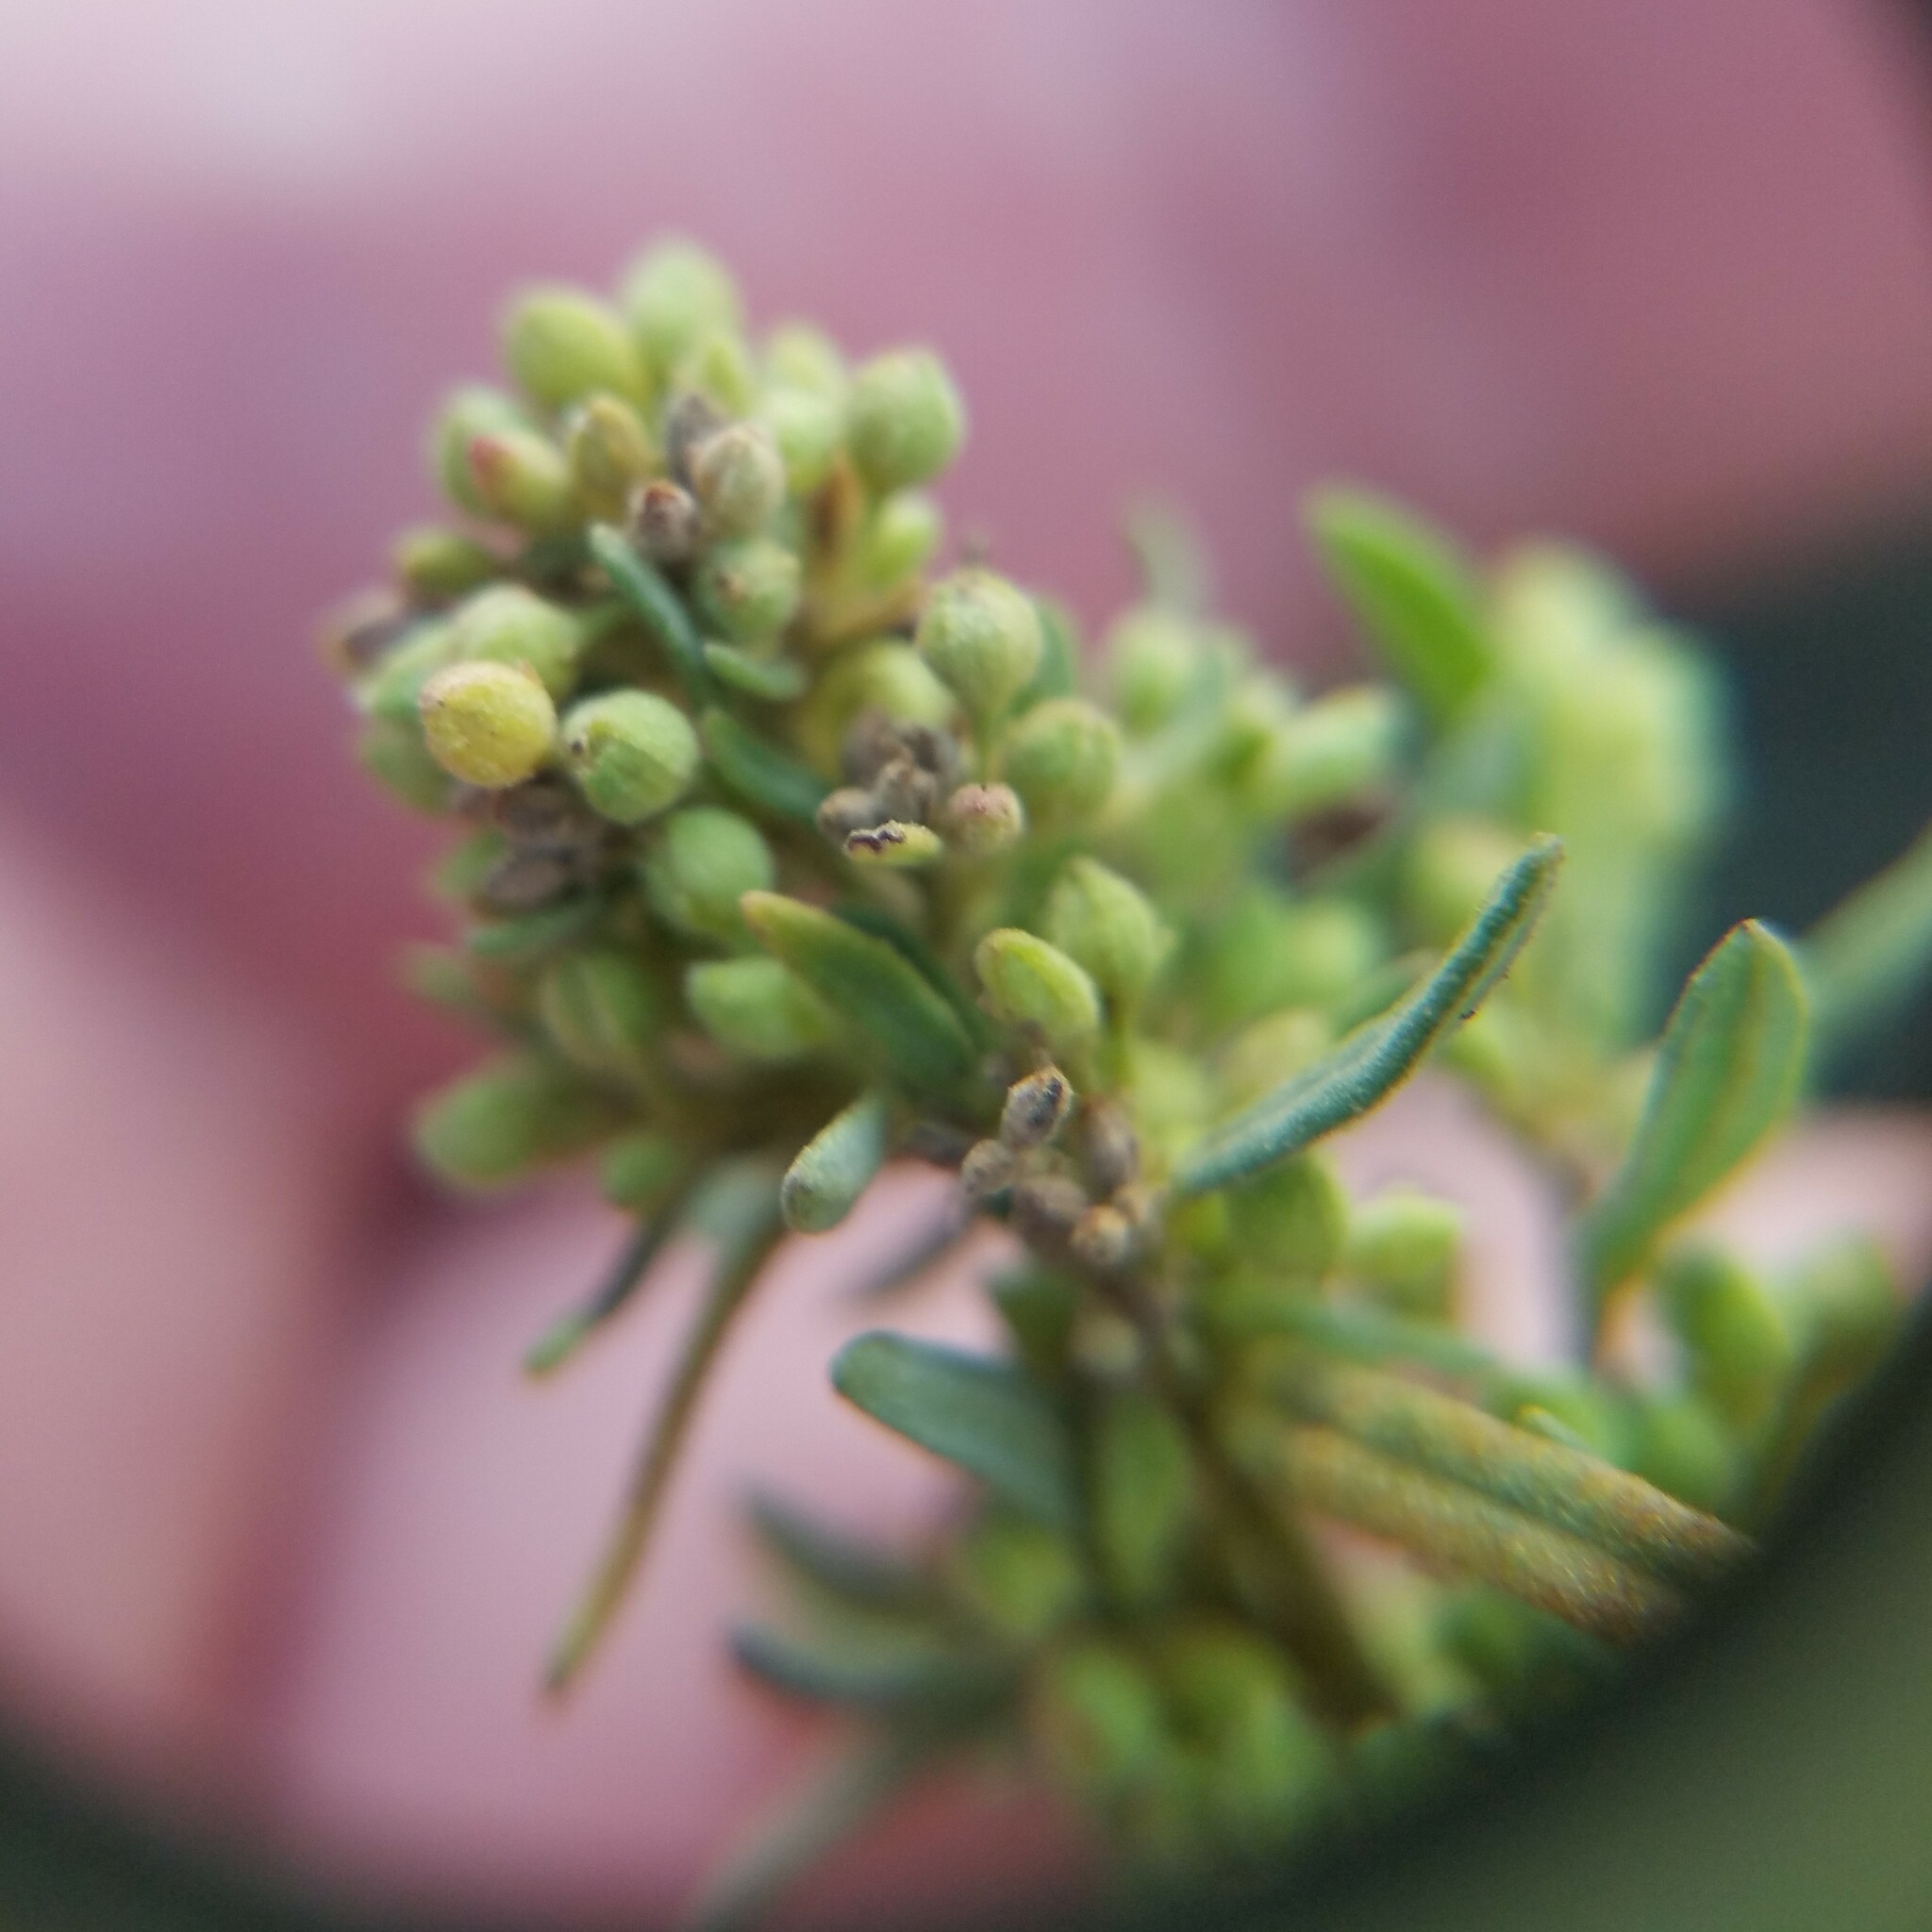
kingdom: Plantae
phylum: Tracheophyta
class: Magnoliopsida
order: Malvales
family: Cistaceae
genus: Crocanthemum
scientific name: Crocanthemum rosmarinifolium
